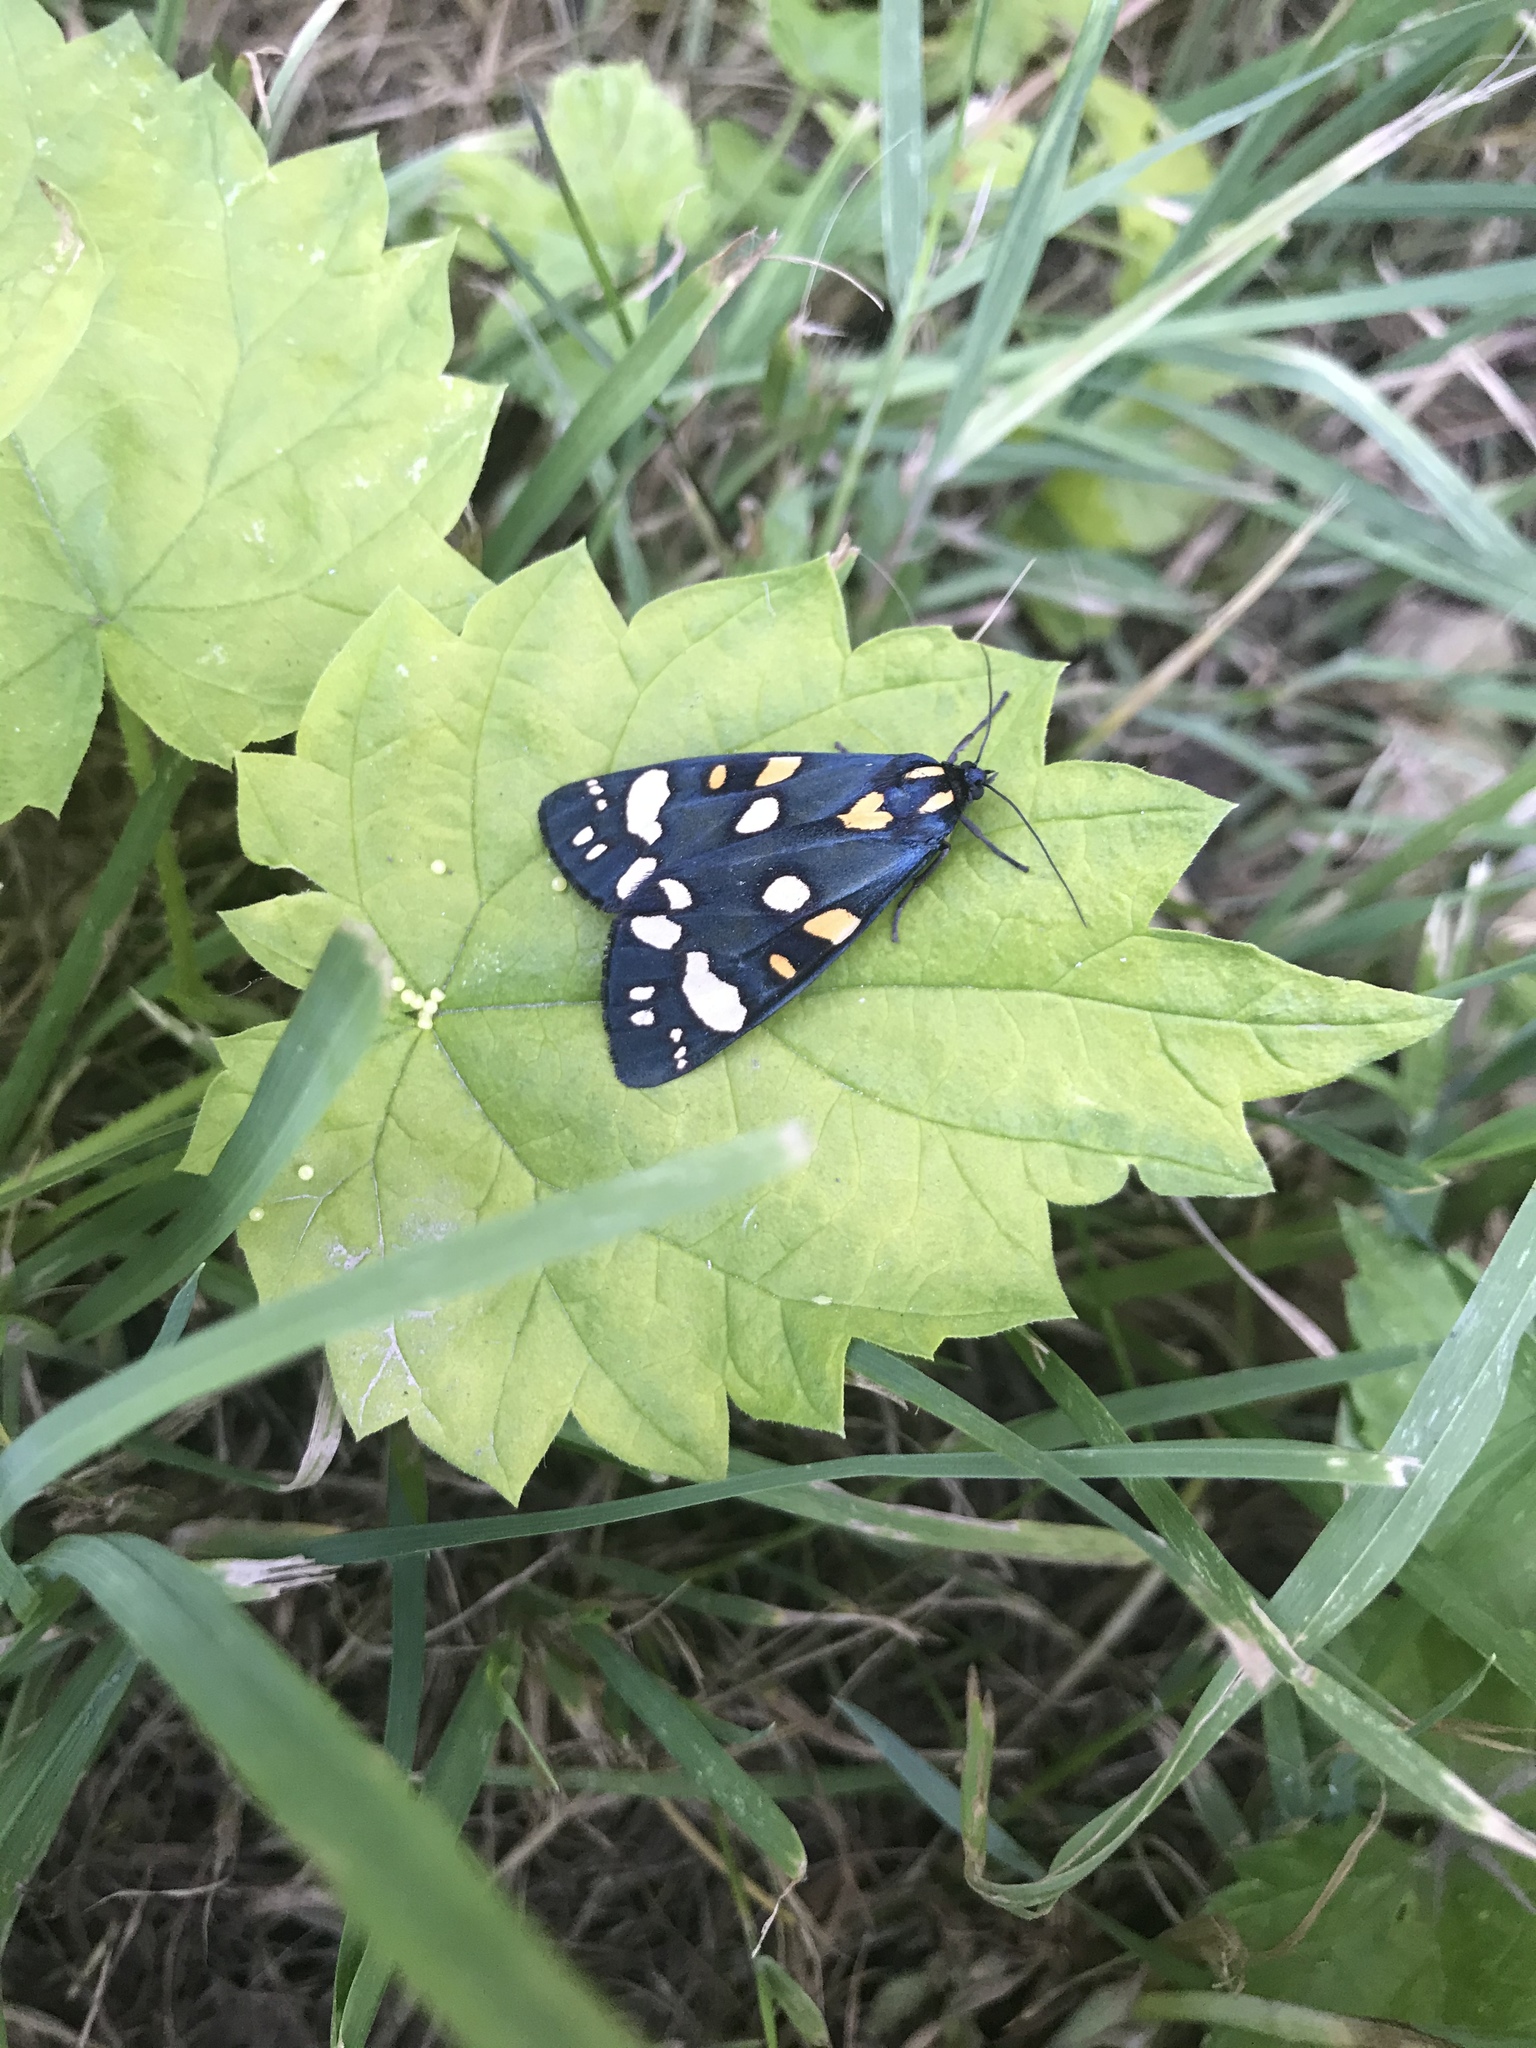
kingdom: Animalia
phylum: Arthropoda
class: Insecta
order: Lepidoptera
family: Erebidae
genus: Callimorpha
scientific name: Callimorpha dominula
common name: Scarlet tiger
